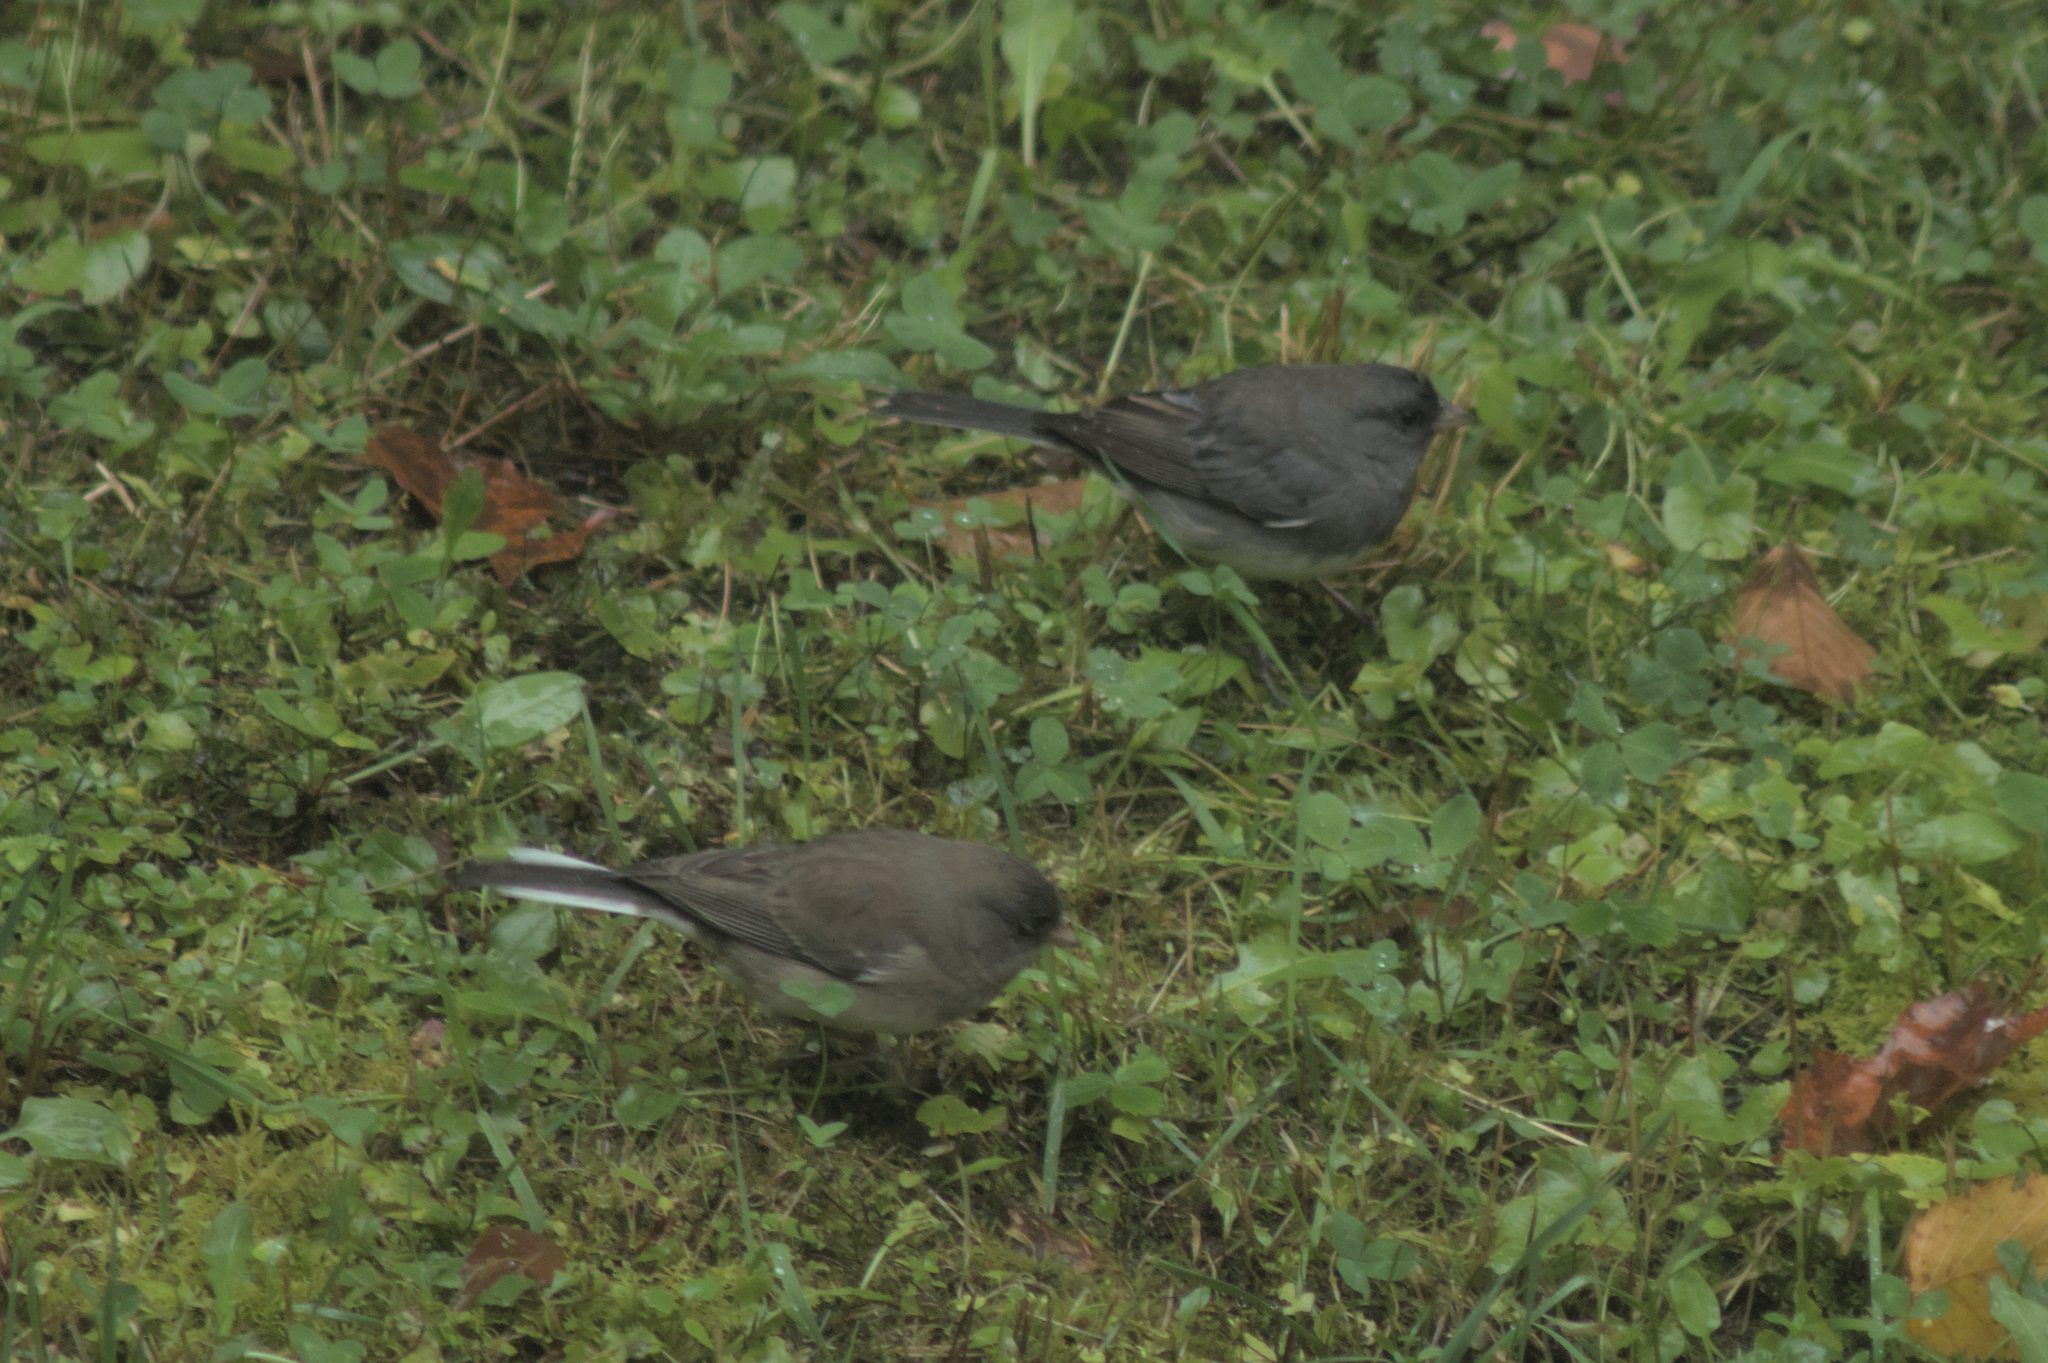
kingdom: Animalia
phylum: Chordata
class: Aves
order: Passeriformes
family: Passerellidae
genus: Junco
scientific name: Junco hyemalis
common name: Dark-eyed junco
